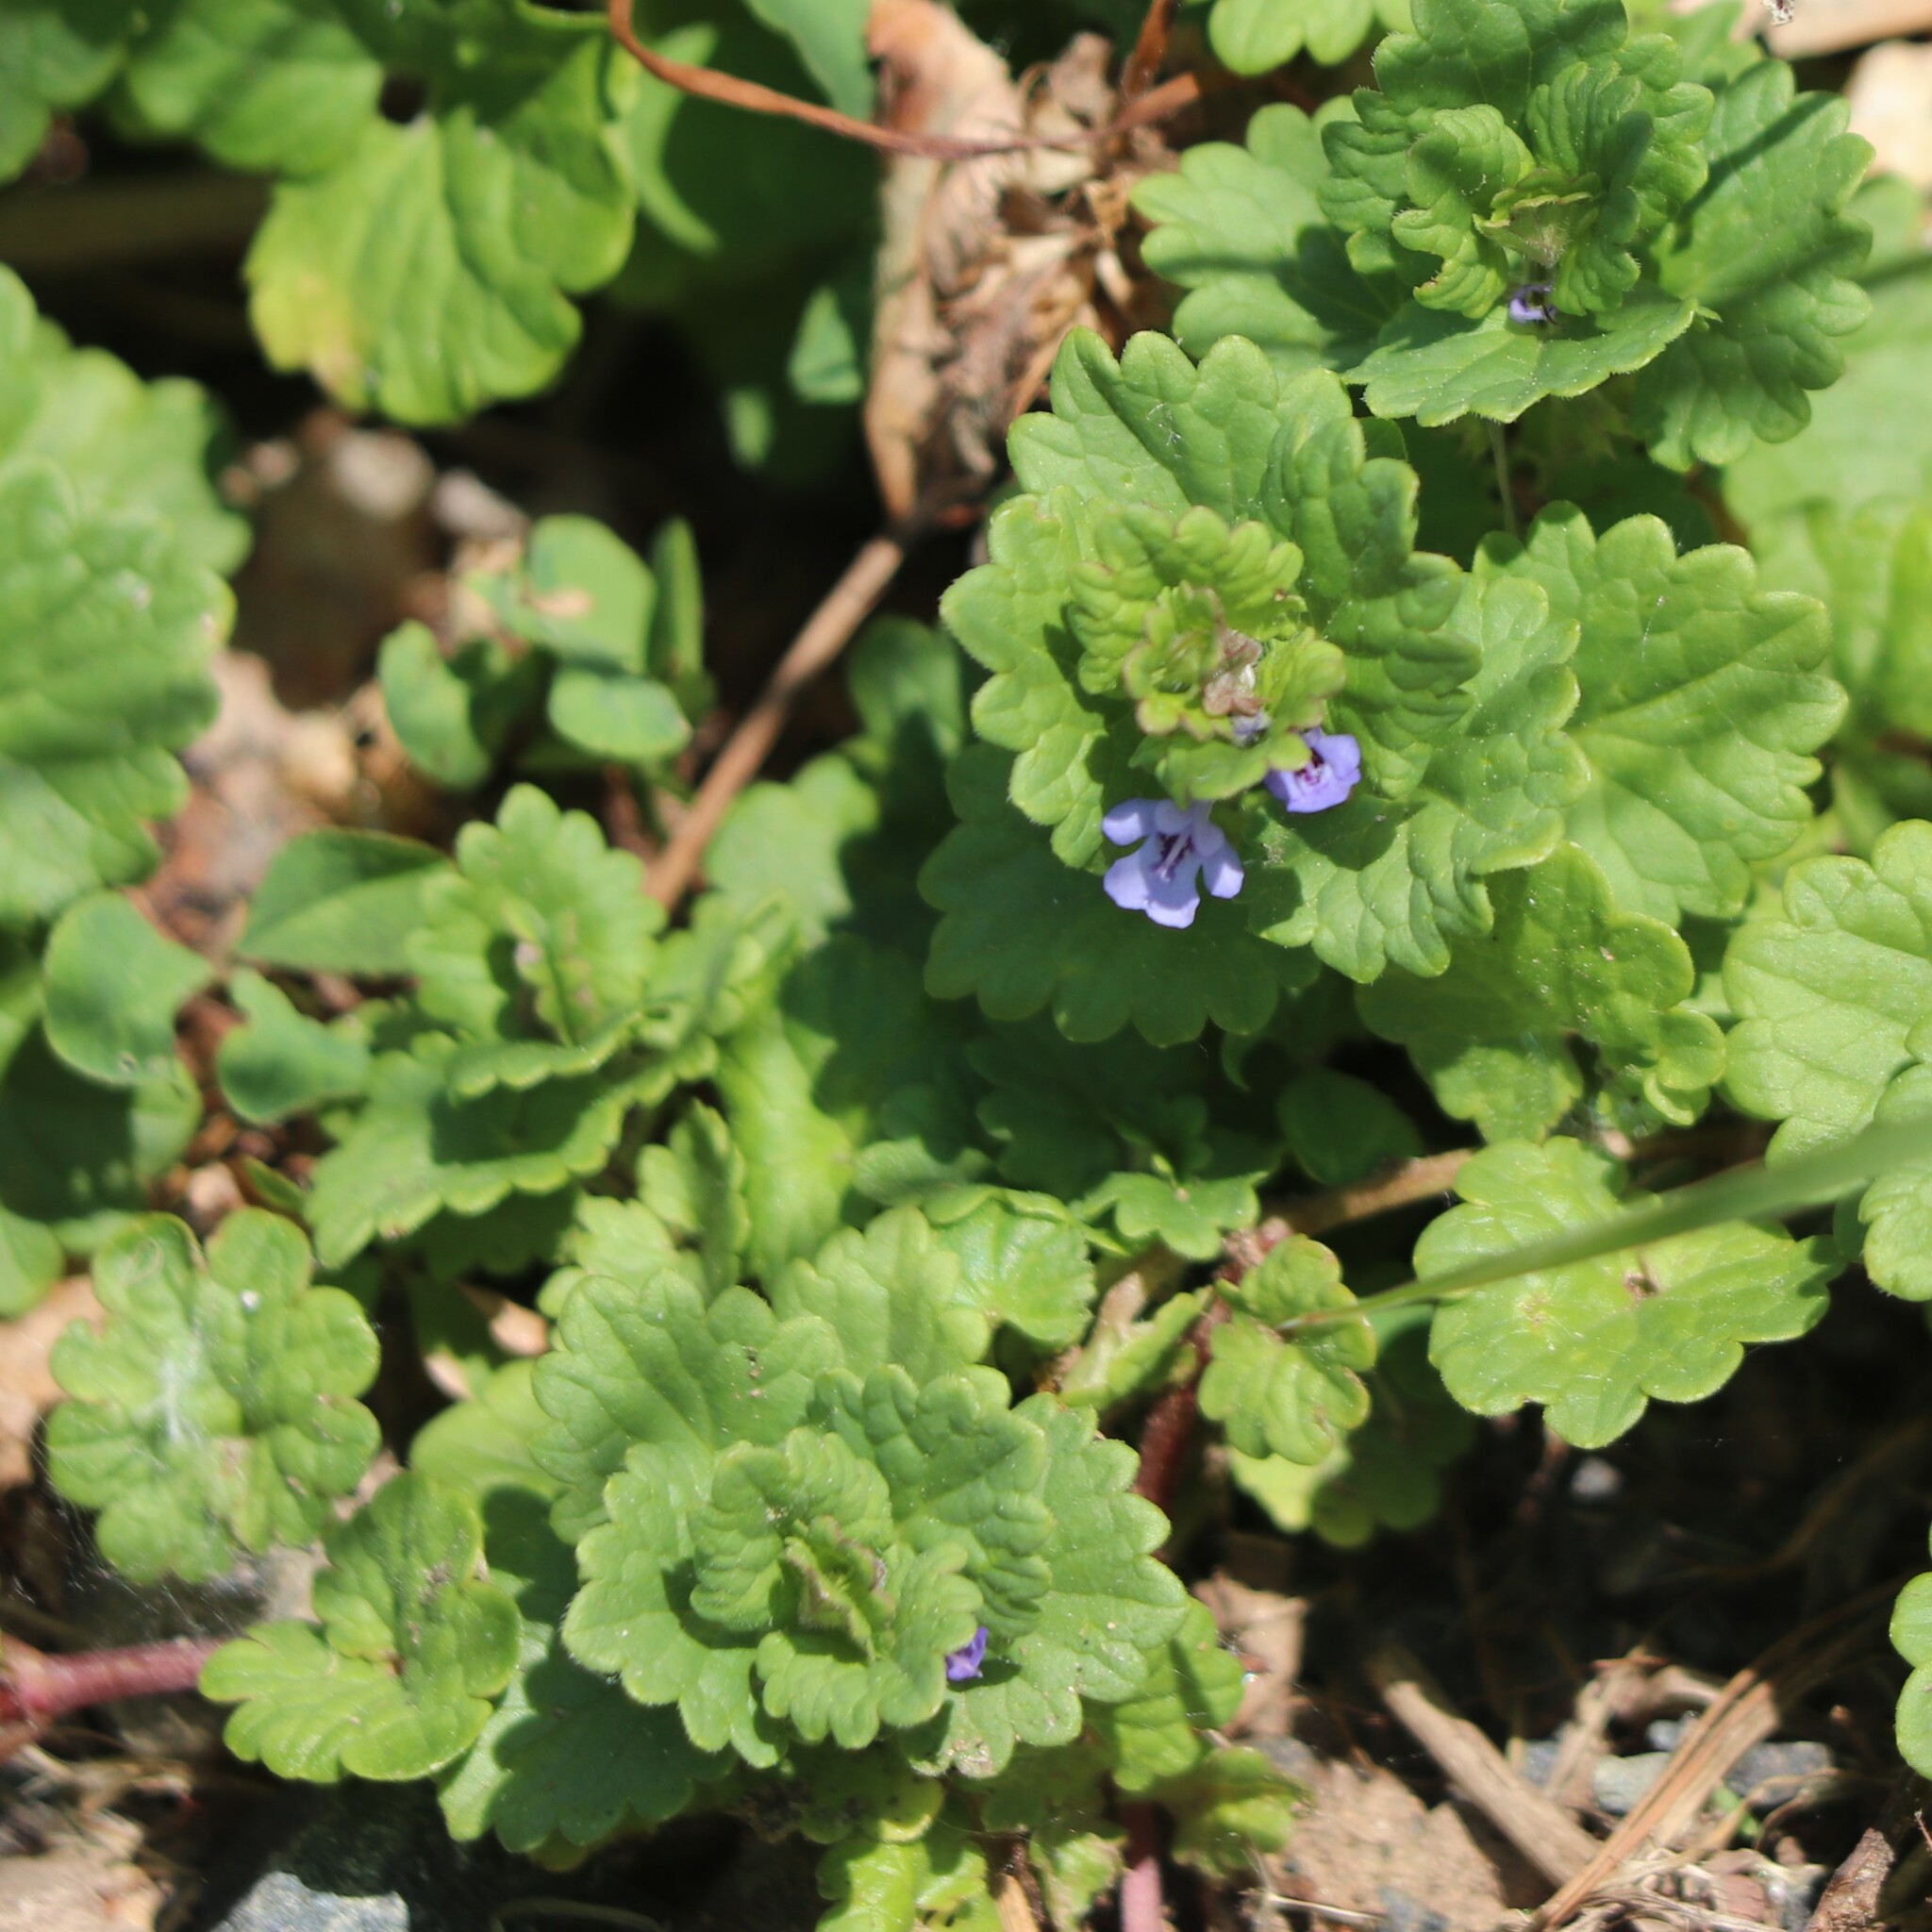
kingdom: Plantae
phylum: Tracheophyta
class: Magnoliopsida
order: Lamiales
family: Lamiaceae
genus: Glechoma
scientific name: Glechoma hederacea
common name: Ground ivy
